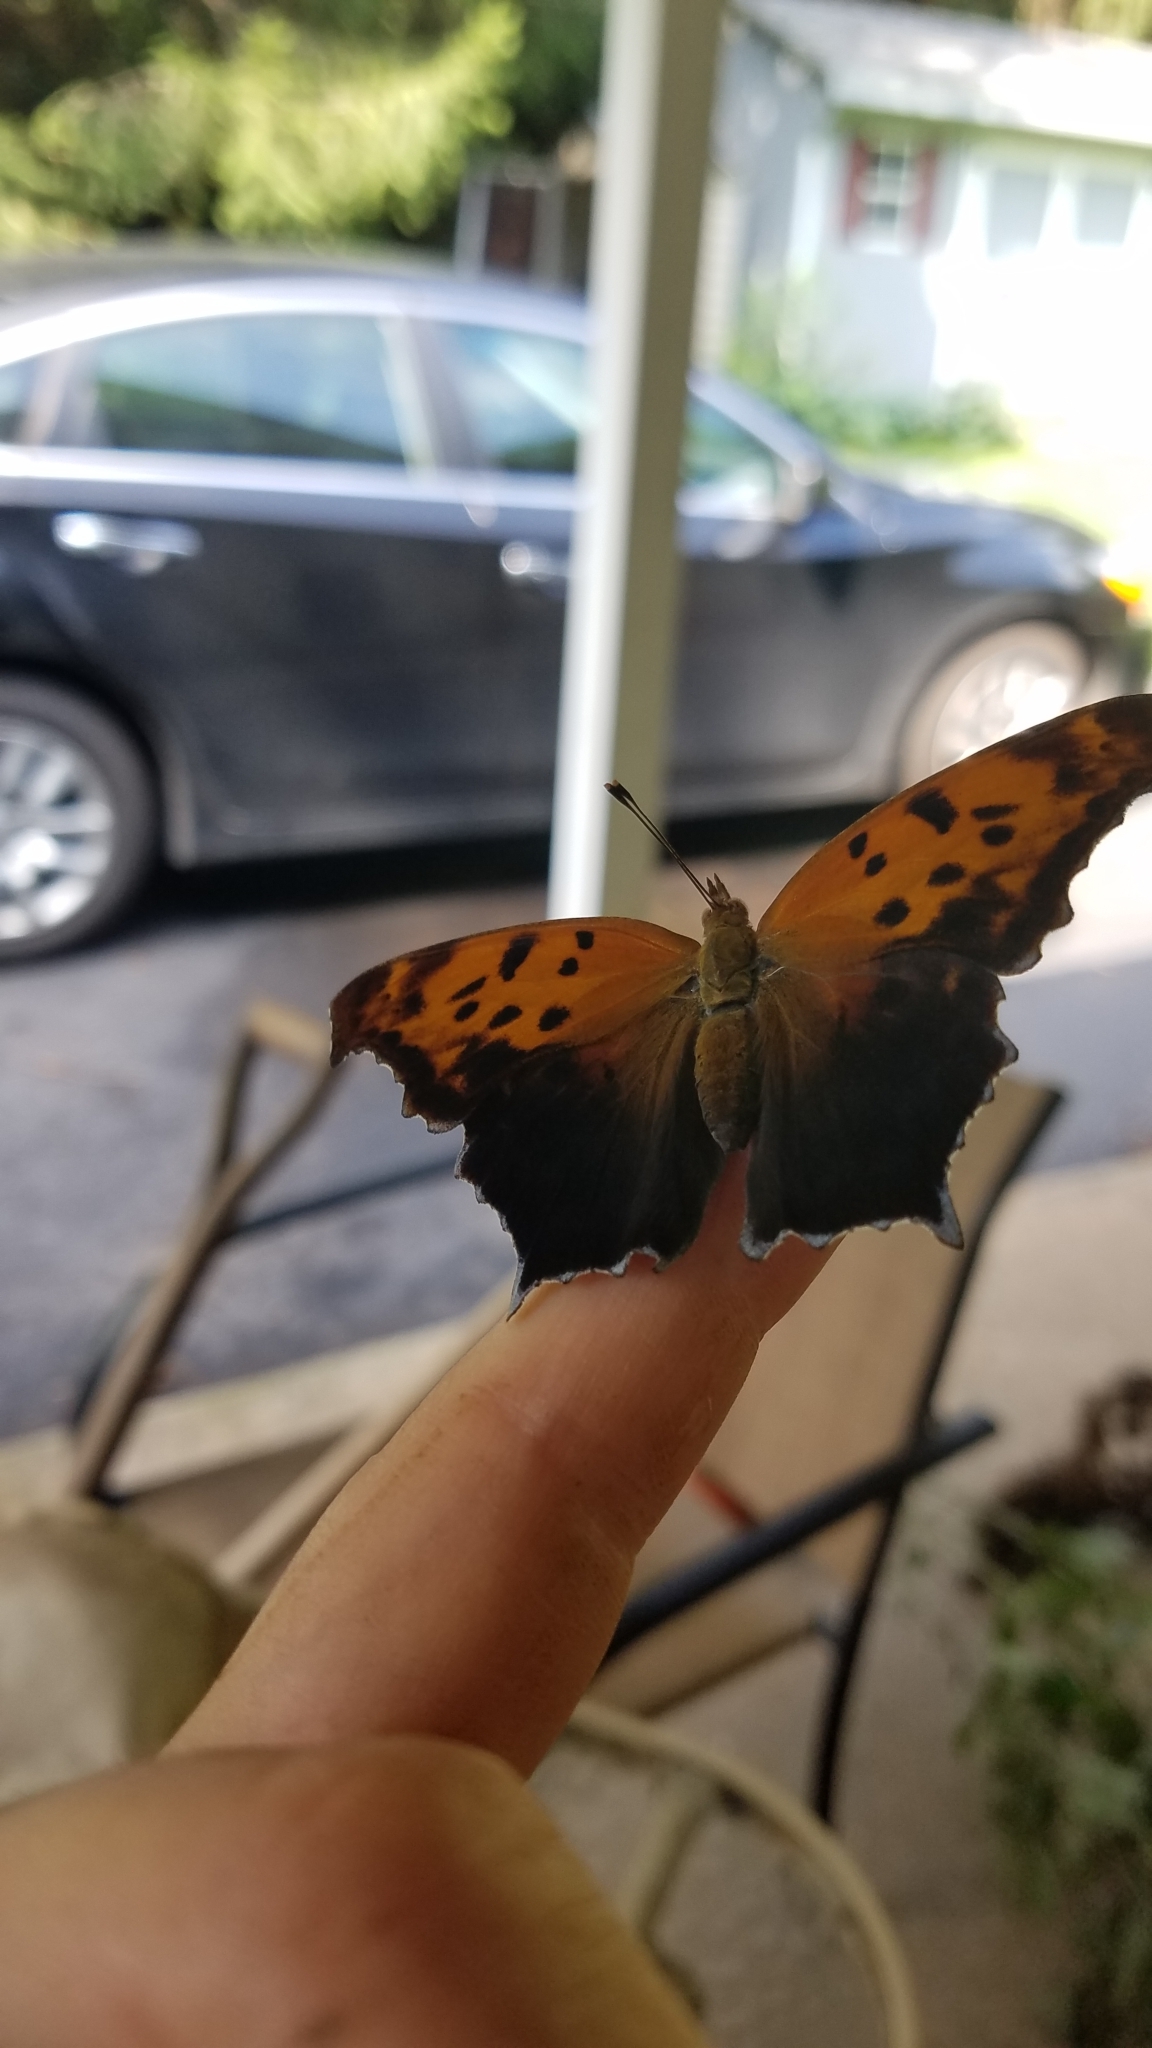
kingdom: Animalia
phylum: Arthropoda
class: Insecta
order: Lepidoptera
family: Nymphalidae
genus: Polygonia
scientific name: Polygonia interrogationis
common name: Question mark
